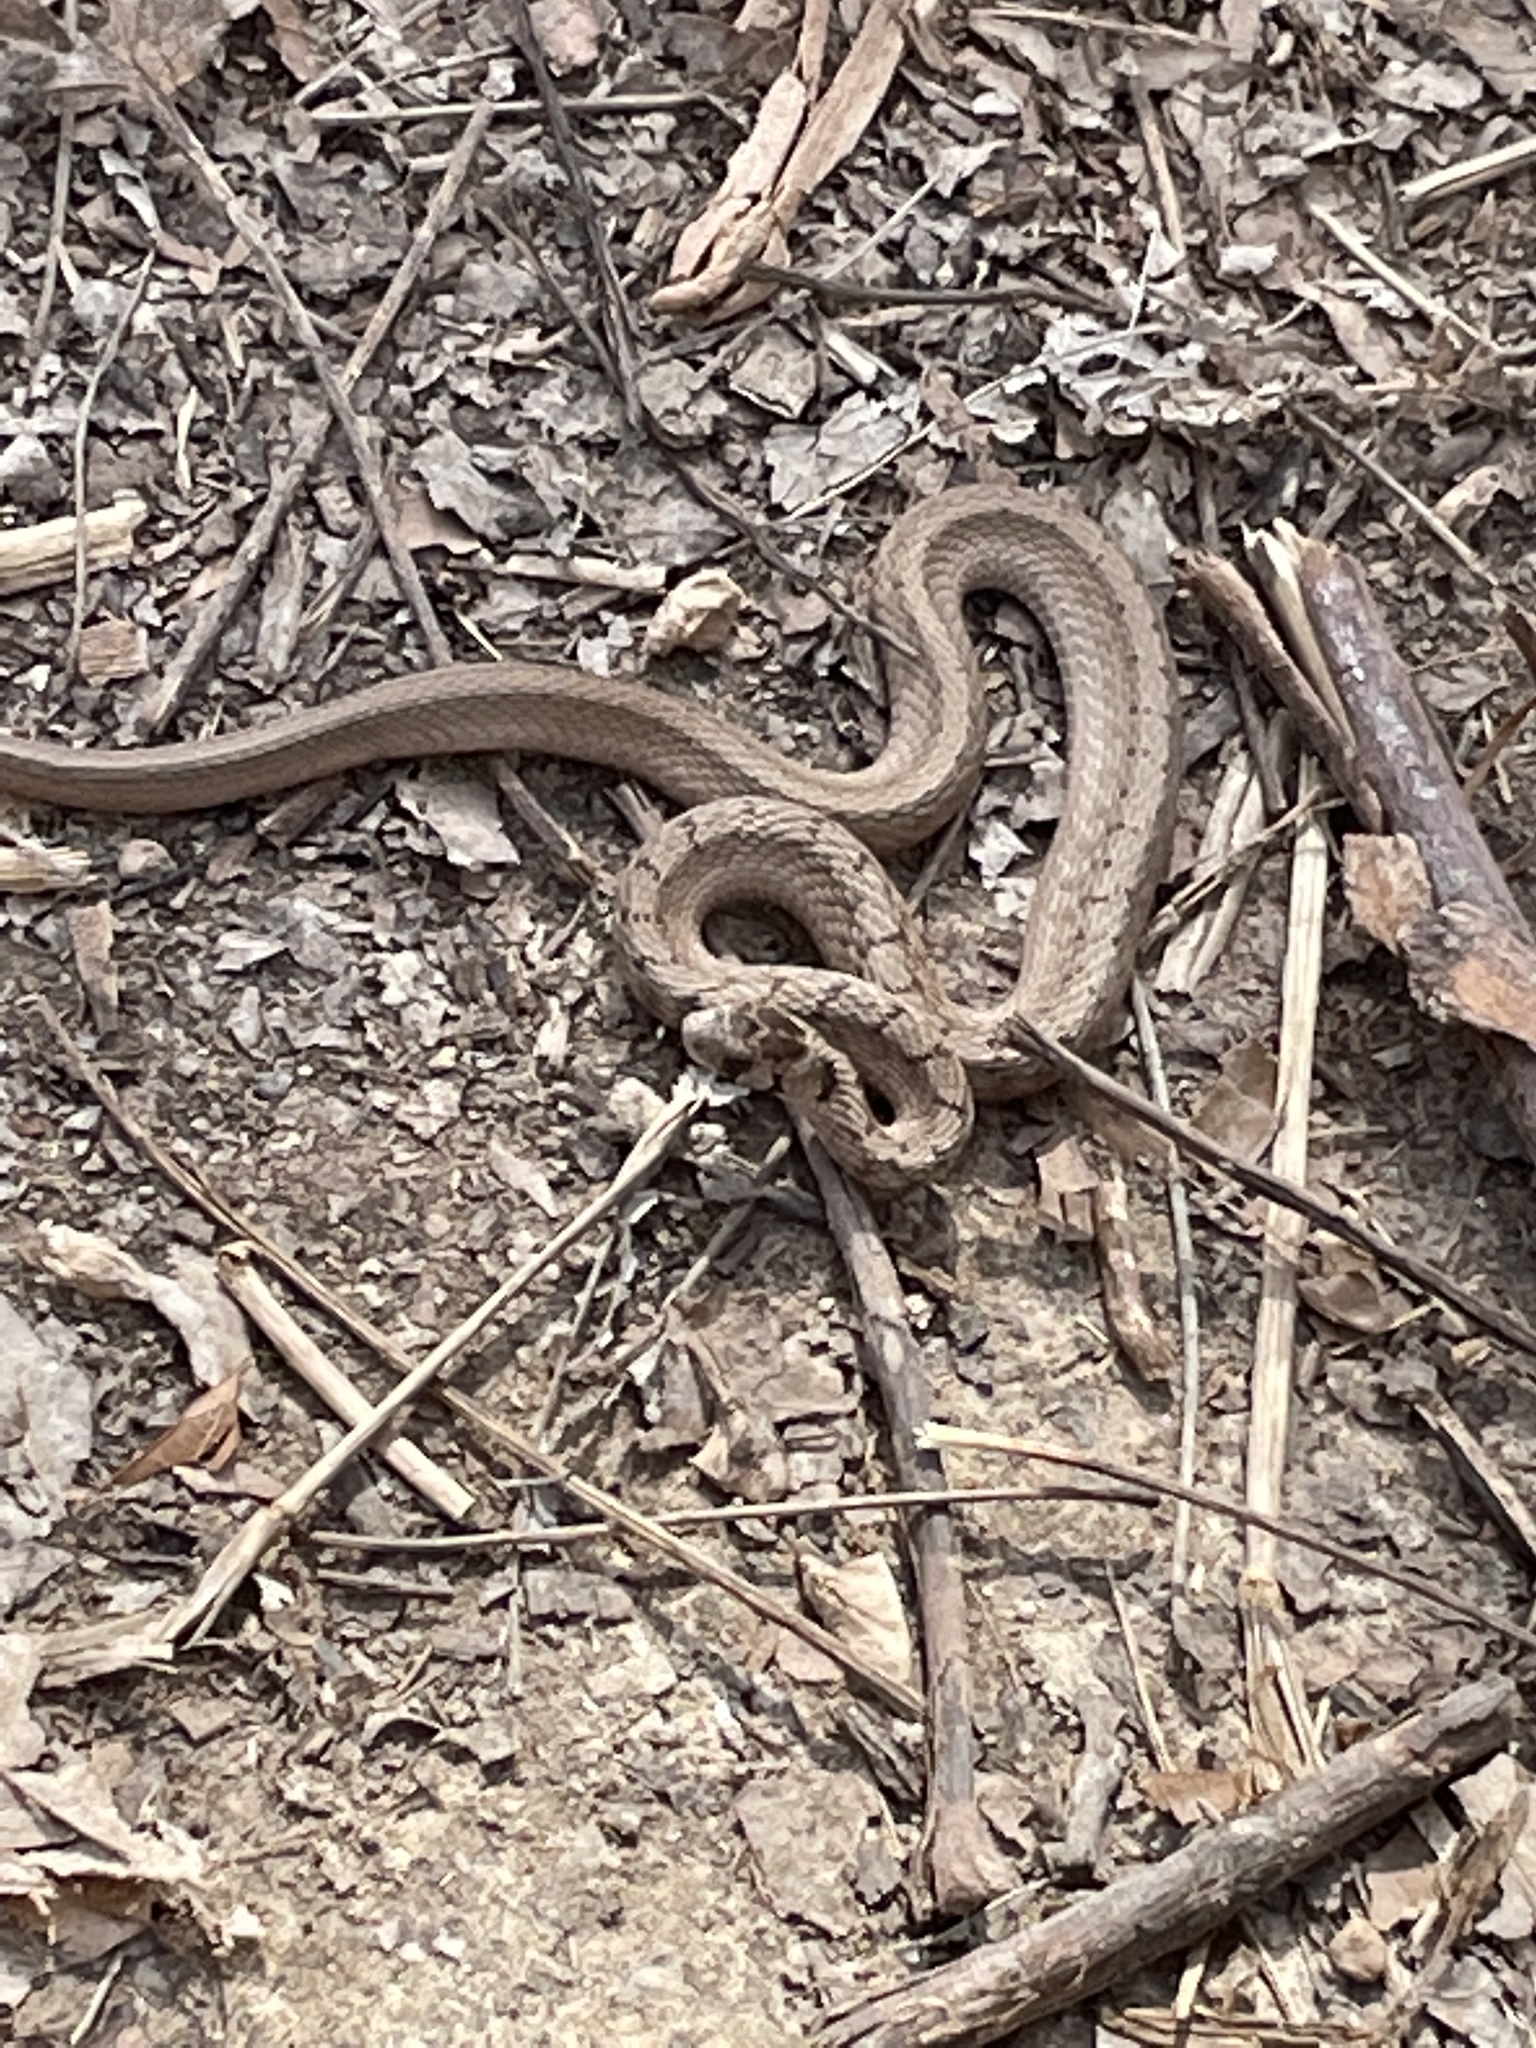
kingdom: Animalia
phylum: Chordata
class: Squamata
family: Colubridae
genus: Storeria
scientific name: Storeria dekayi
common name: (dekay’s) brown snake
